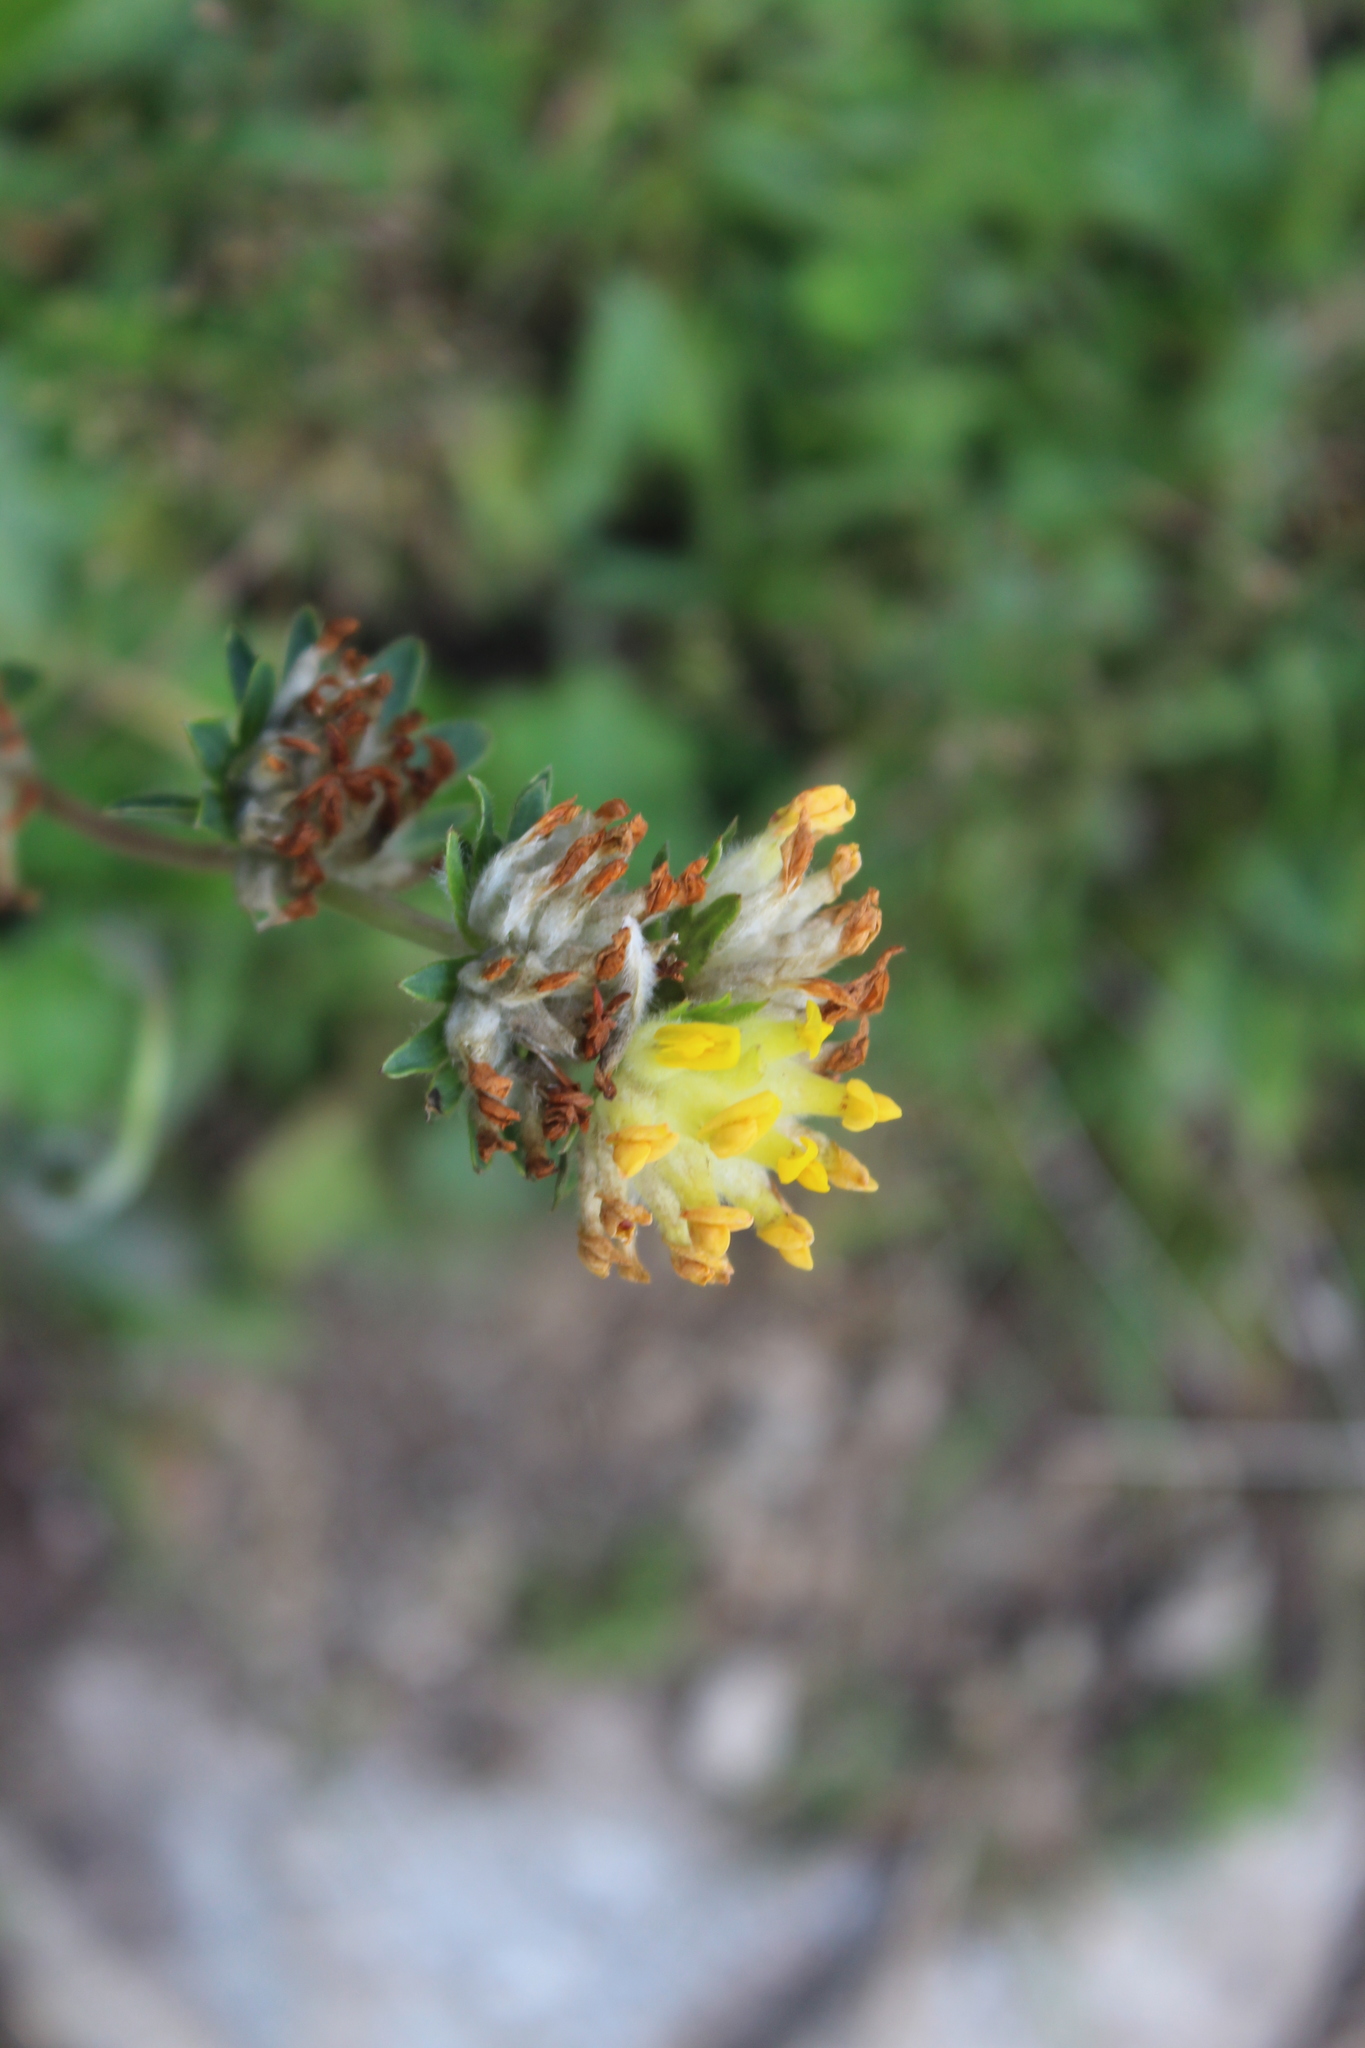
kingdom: Plantae
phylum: Tracheophyta
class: Magnoliopsida
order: Fabales
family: Fabaceae
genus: Anthyllis
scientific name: Anthyllis vulneraria
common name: Kidney vetch
